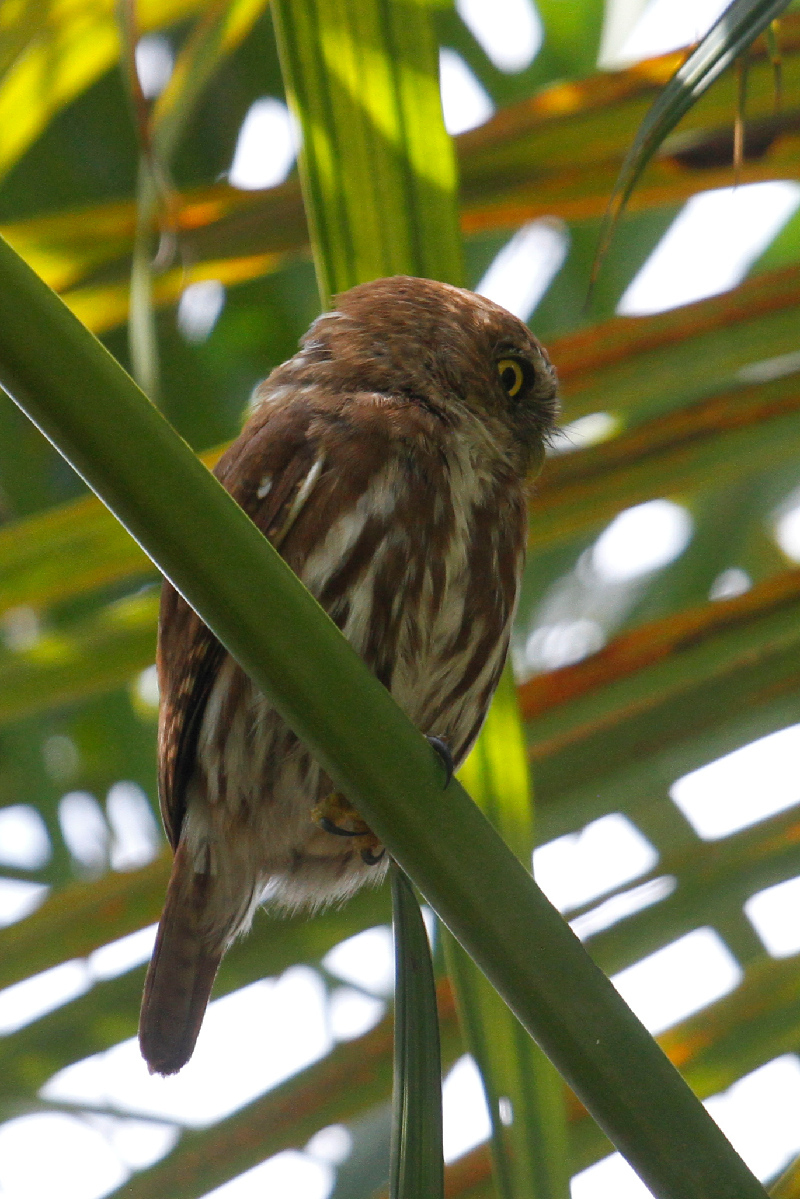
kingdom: Animalia
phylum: Chordata
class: Aves
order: Strigiformes
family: Strigidae
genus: Glaucidium
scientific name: Glaucidium brasilianum
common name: Ferruginous pygmy-owl
